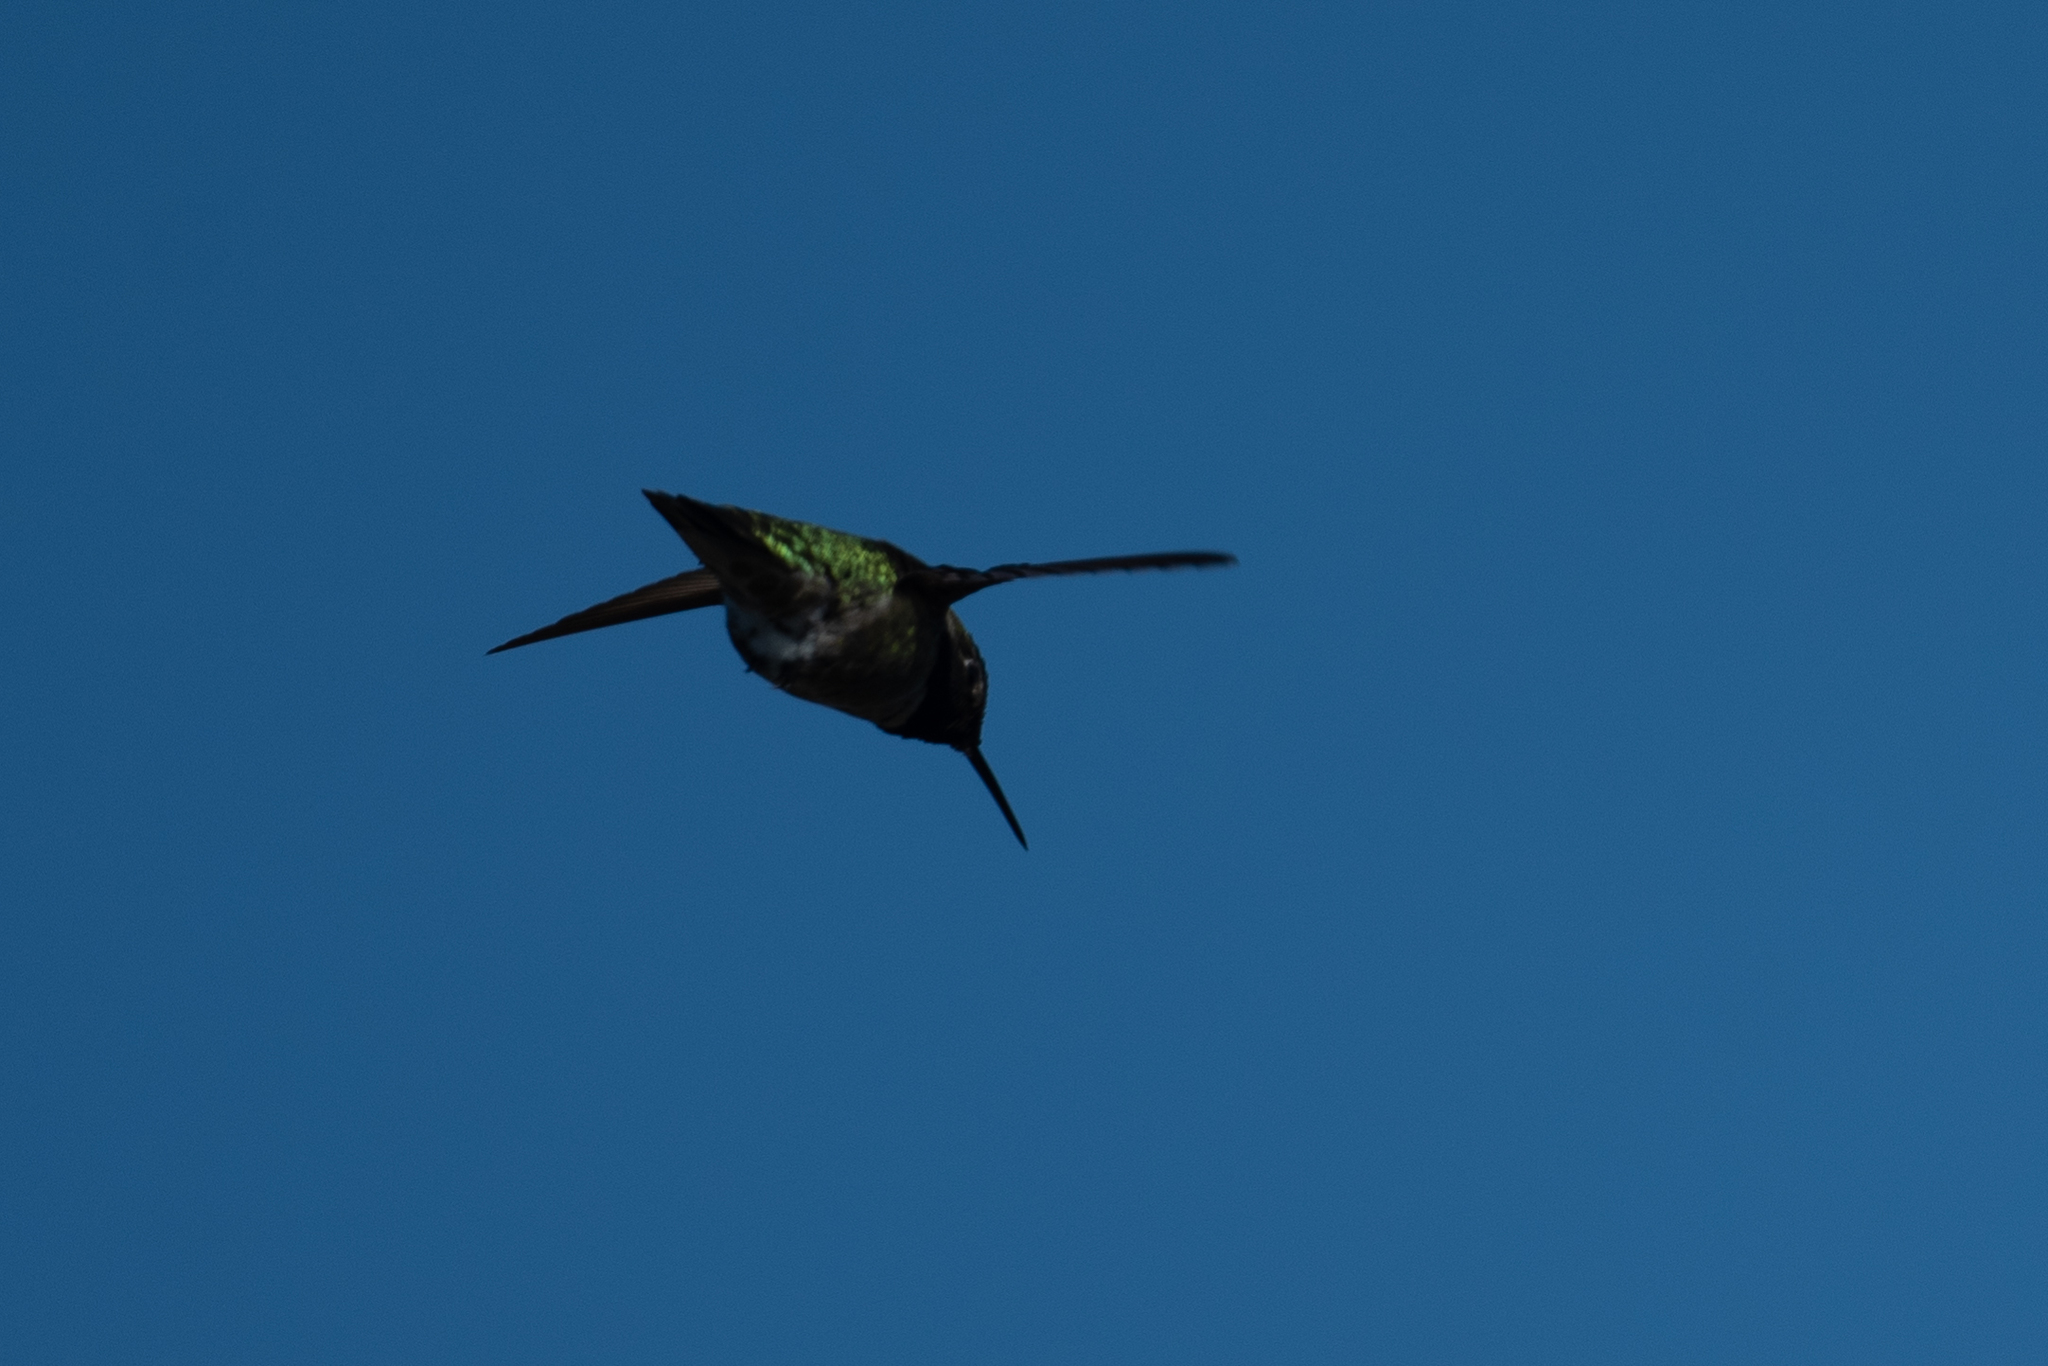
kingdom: Animalia
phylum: Chordata
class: Aves
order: Apodiformes
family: Trochilidae
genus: Calypte
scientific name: Calypte anna
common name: Anna's hummingbird
